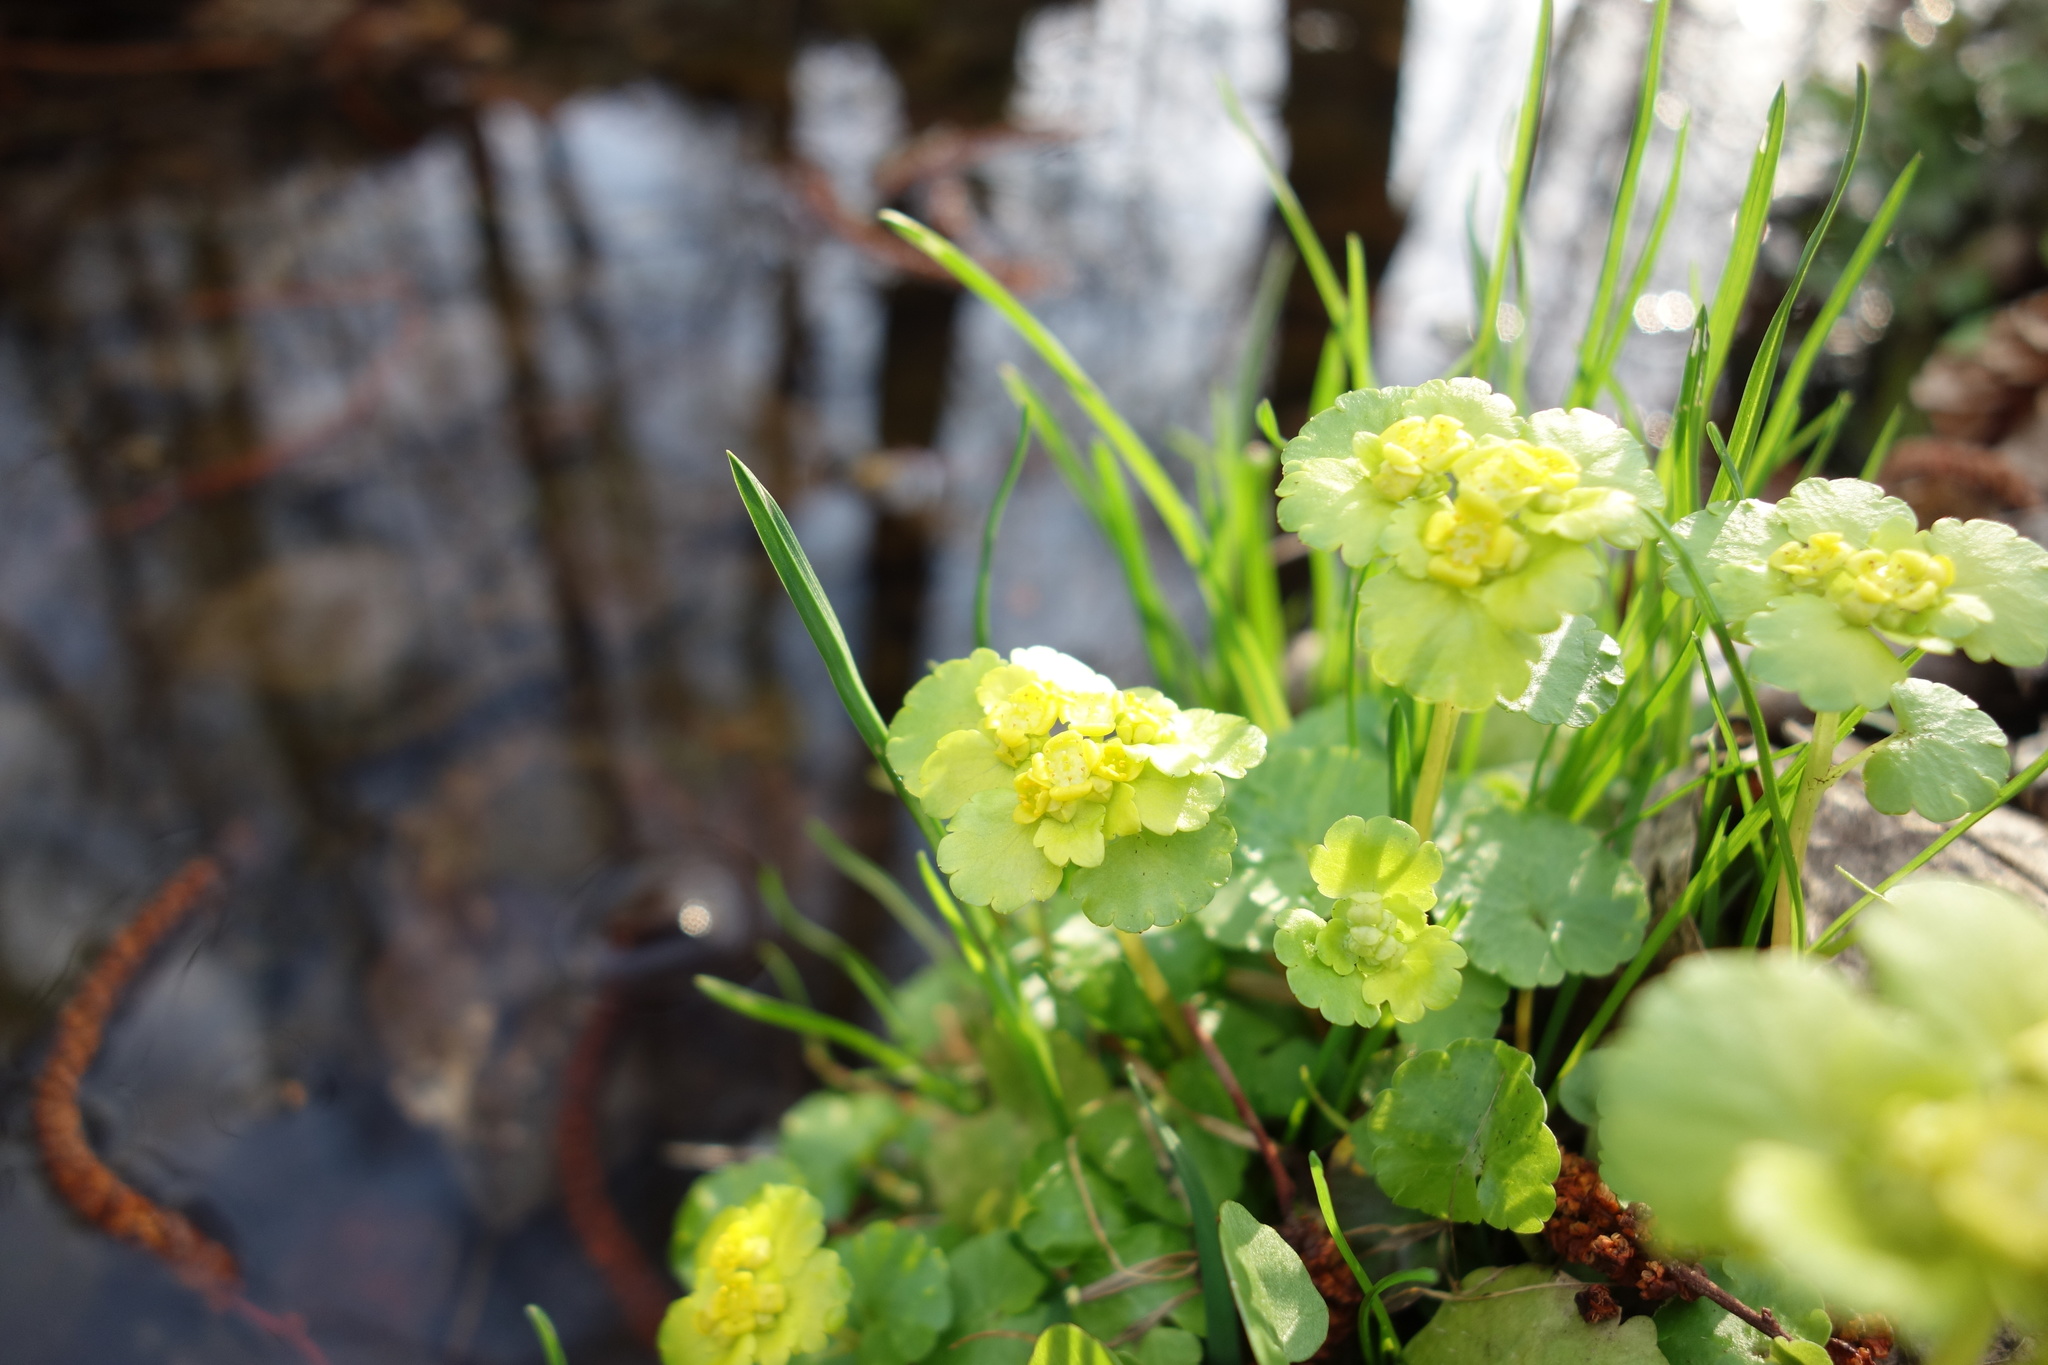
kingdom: Plantae
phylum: Tracheophyta
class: Magnoliopsida
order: Saxifragales
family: Saxifragaceae
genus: Chrysosplenium
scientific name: Chrysosplenium alternifolium
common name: Alternate-leaved golden-saxifrage
